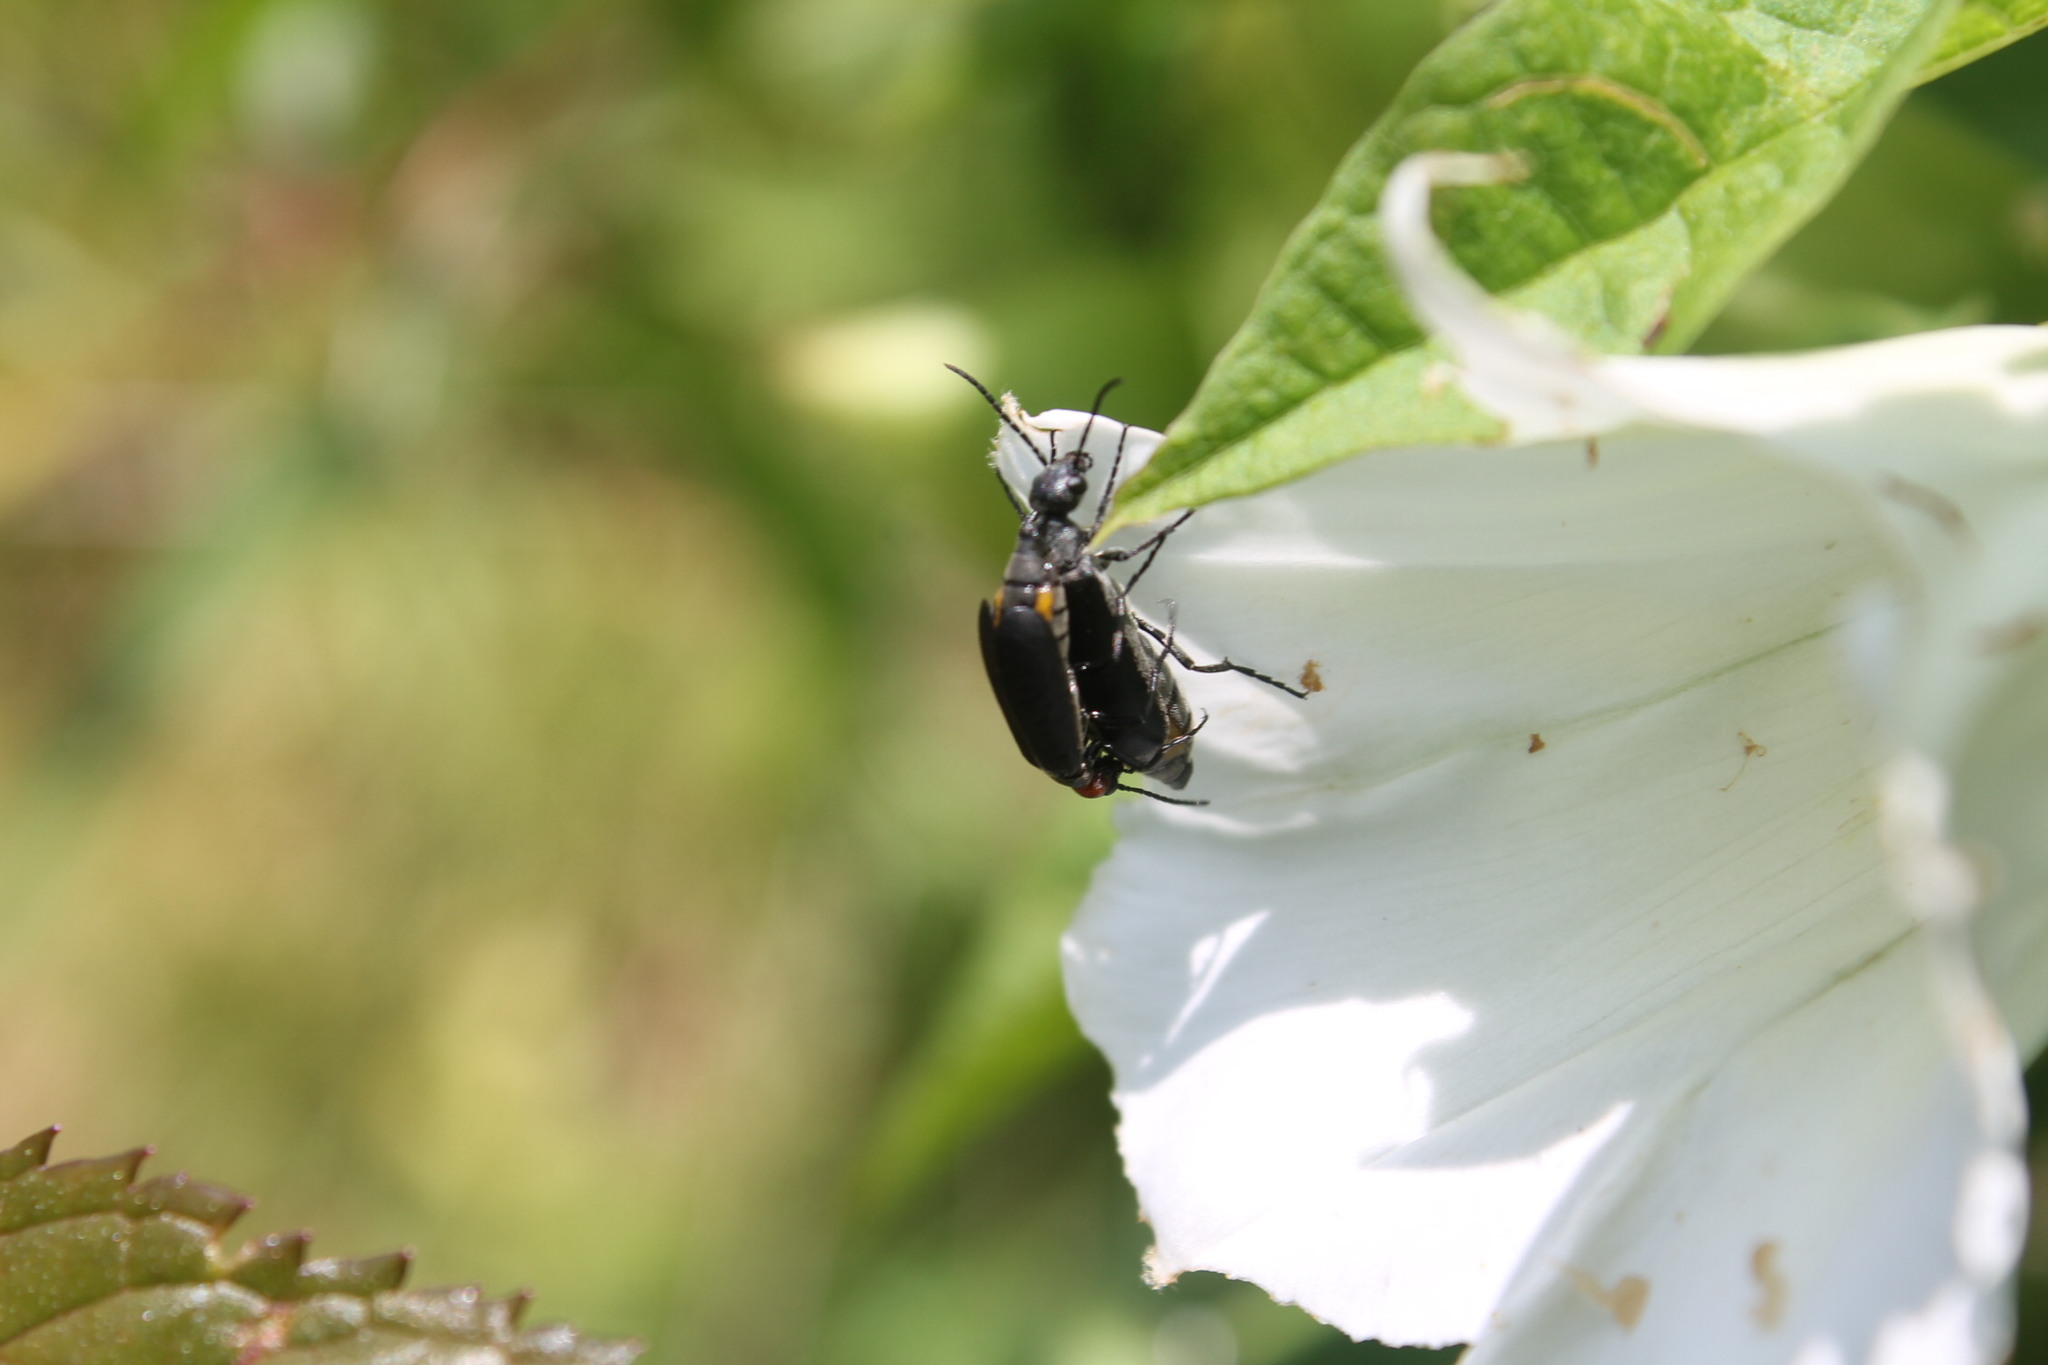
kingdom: Animalia
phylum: Arthropoda
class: Insecta
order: Coleoptera
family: Meloidae
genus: Epicauta
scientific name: Epicauta atrata
